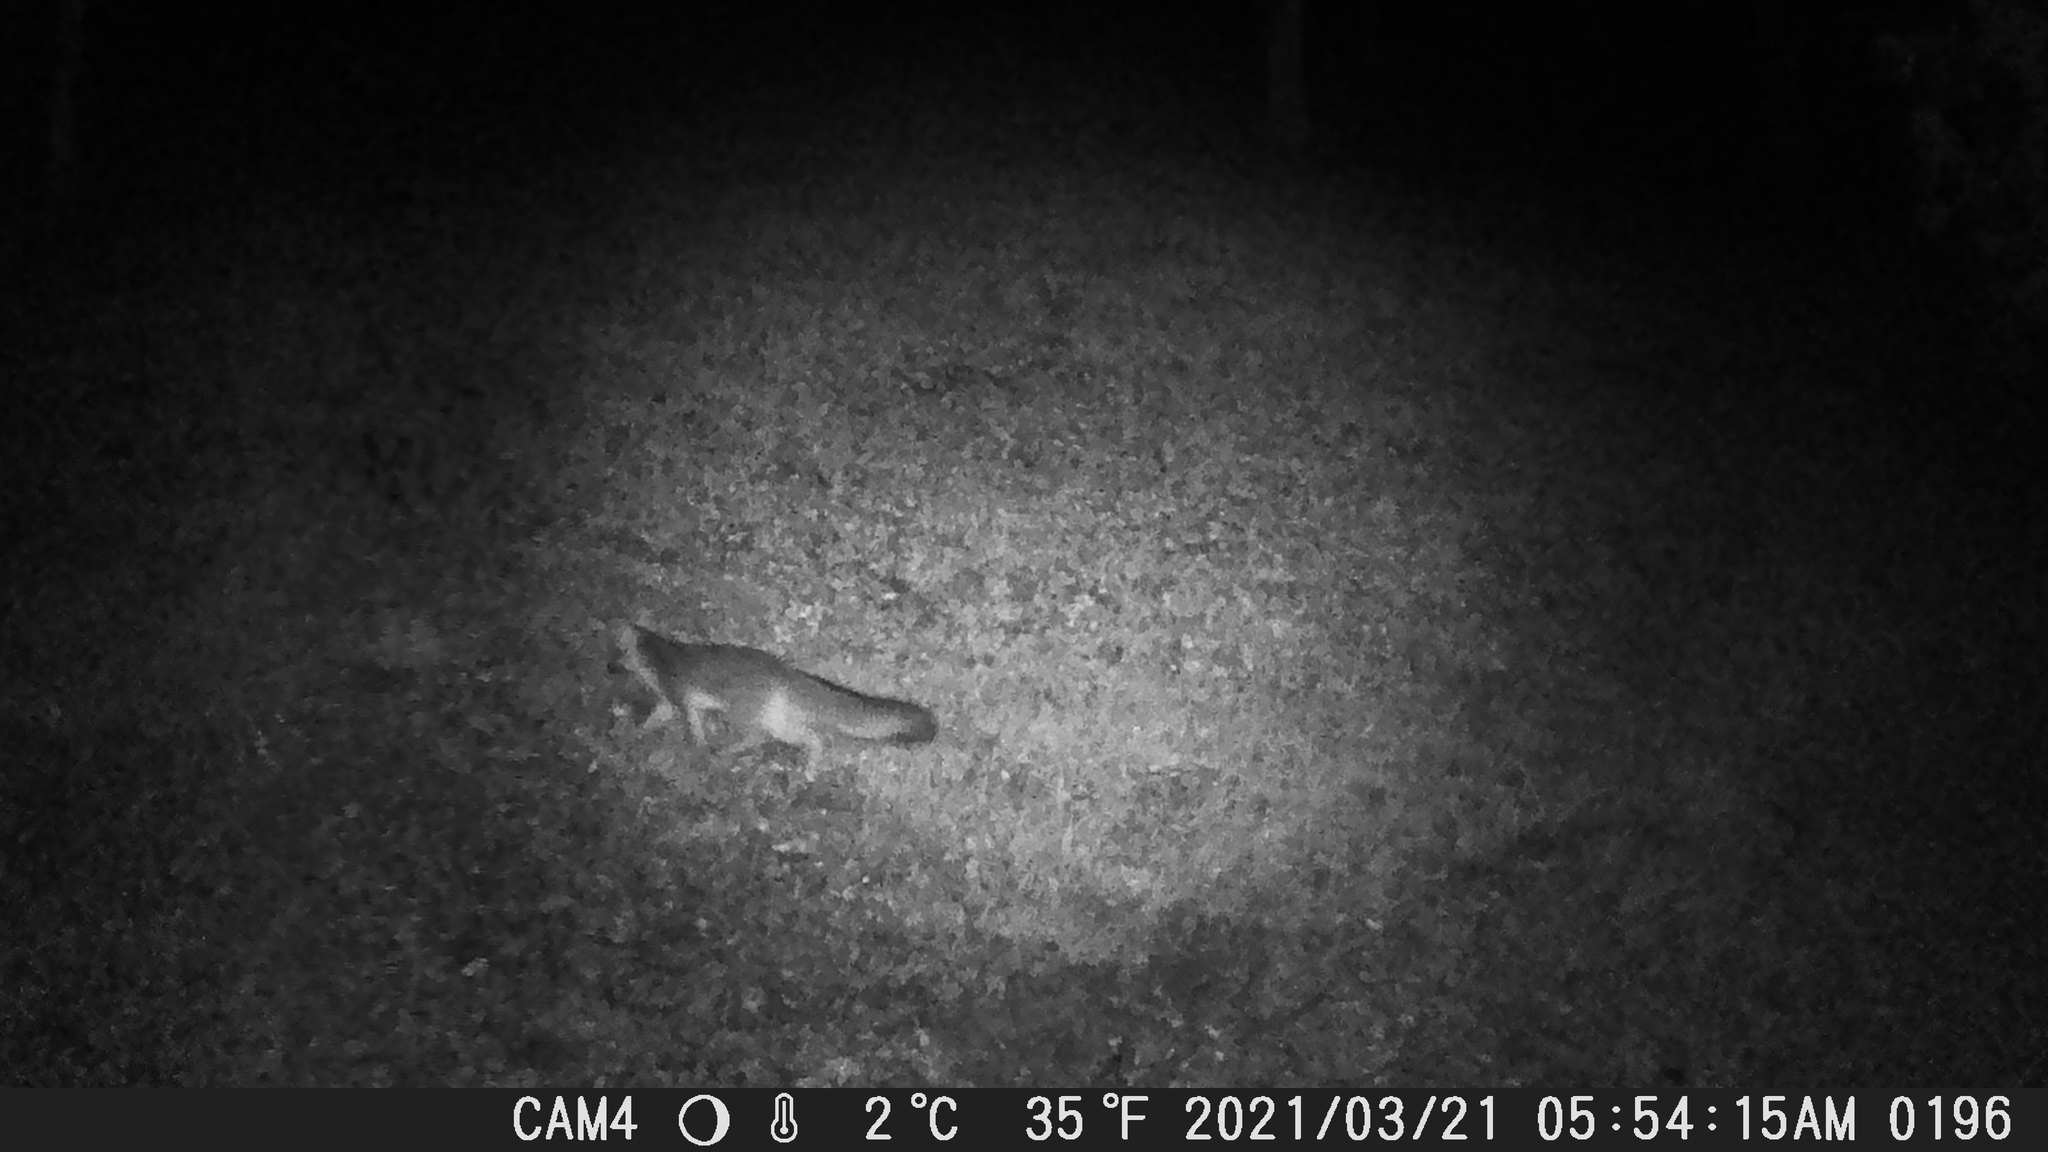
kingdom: Animalia
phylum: Chordata
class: Mammalia
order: Carnivora
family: Canidae
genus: Urocyon
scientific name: Urocyon cinereoargenteus
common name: Gray fox
